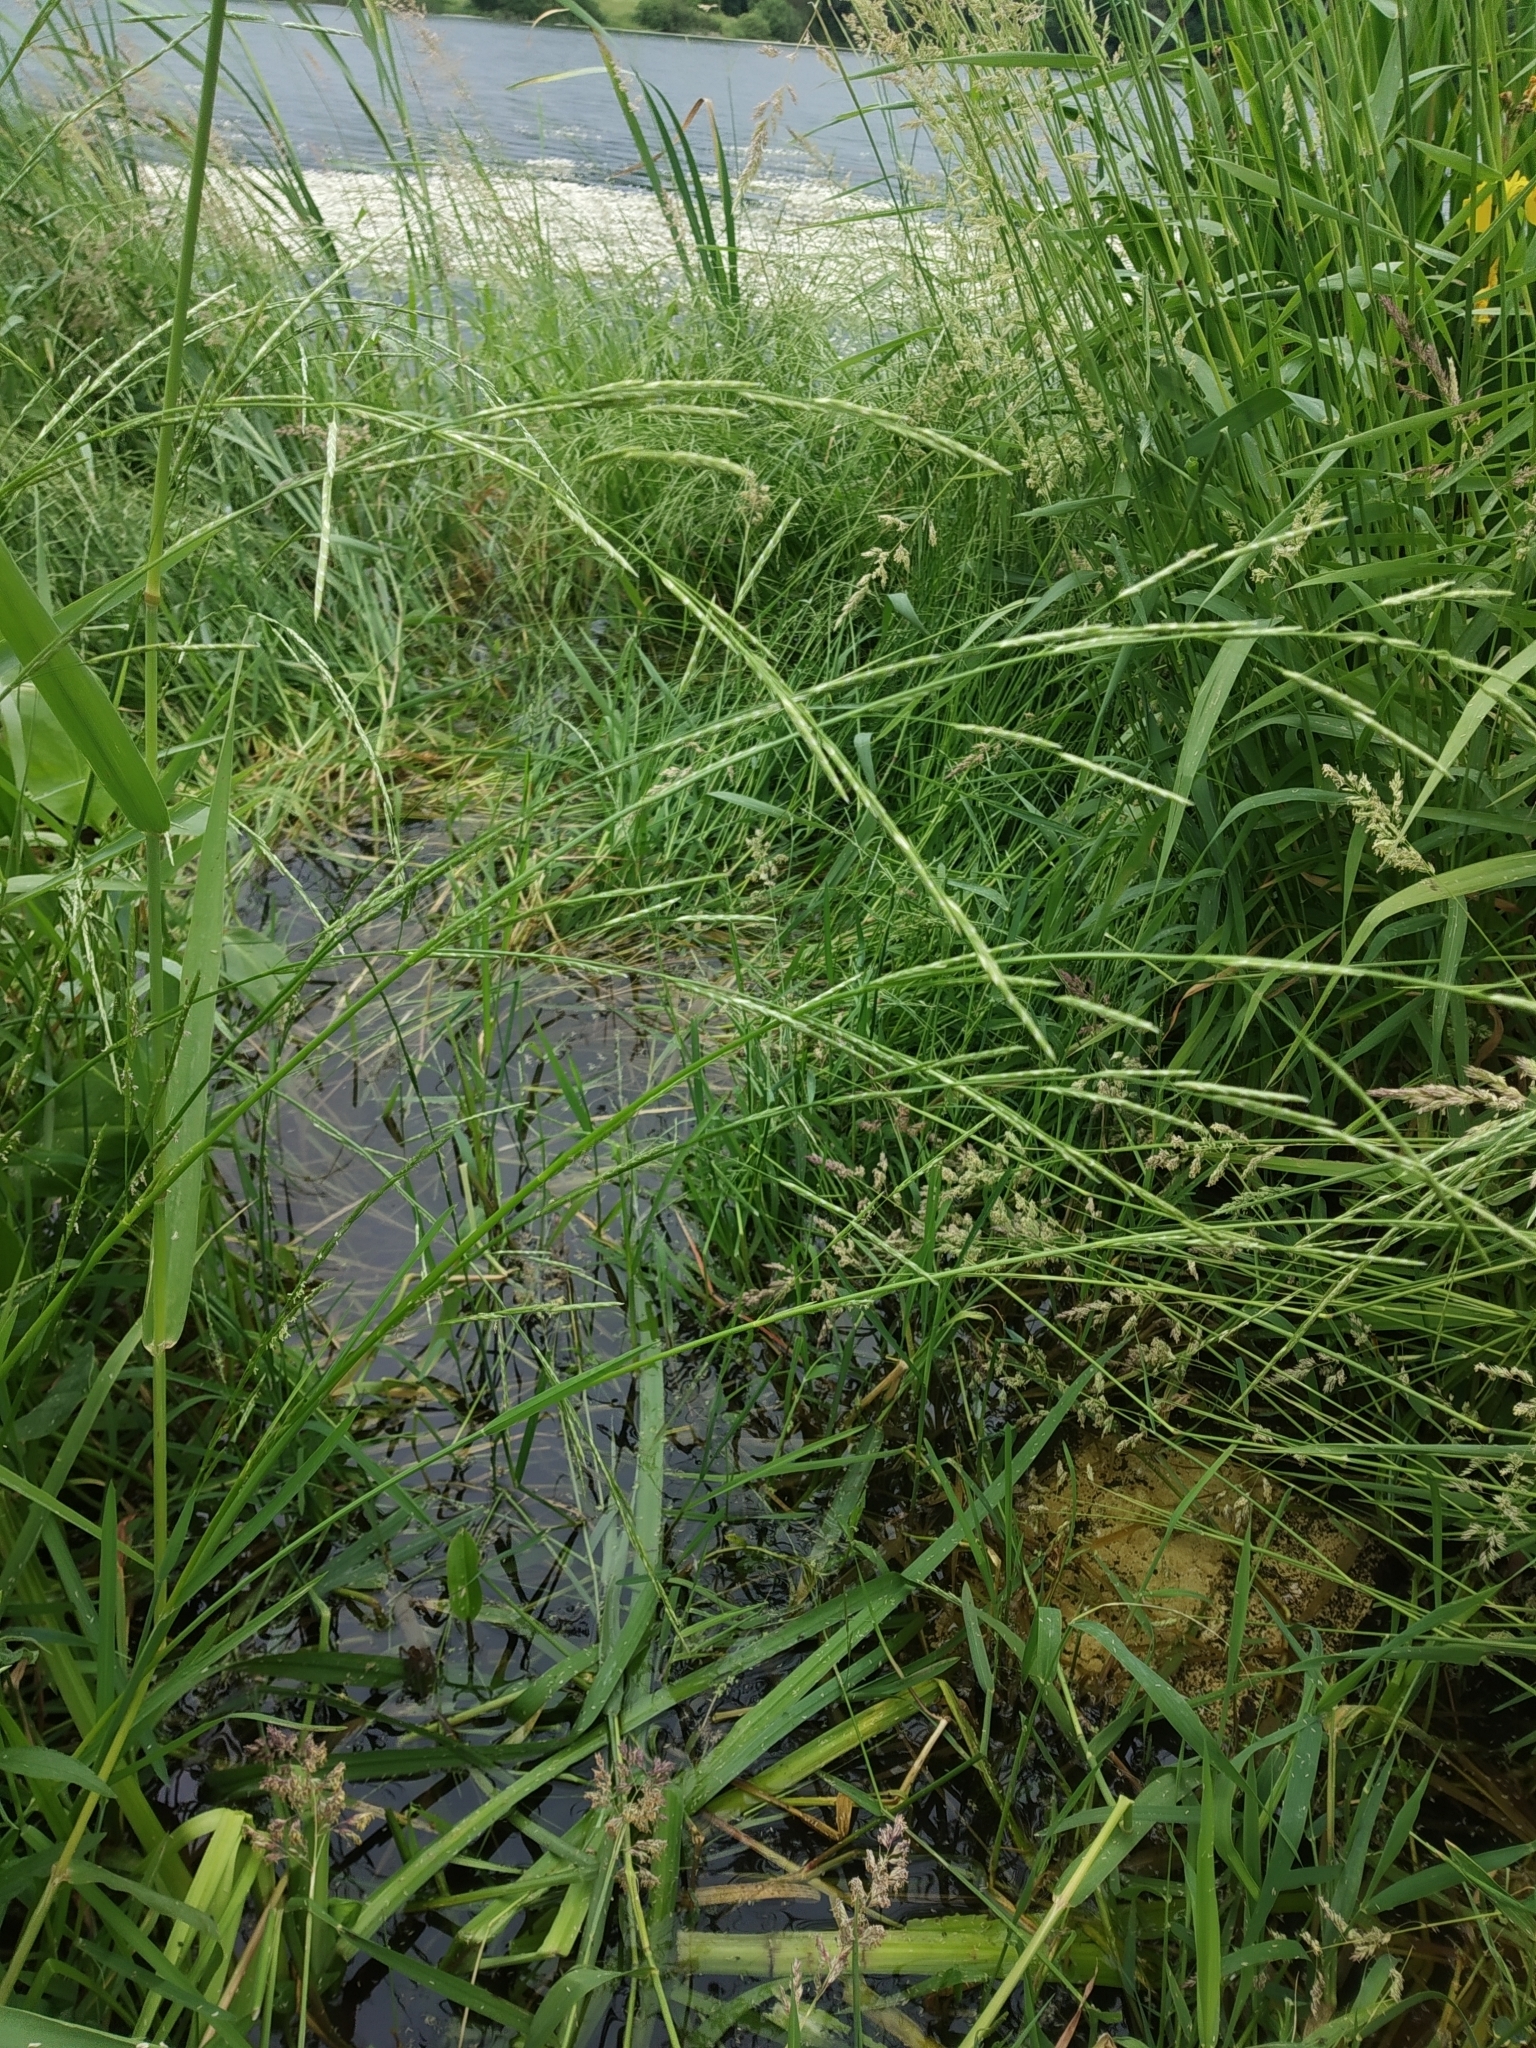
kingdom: Plantae
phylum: Tracheophyta
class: Liliopsida
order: Poales
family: Poaceae
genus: Glyceria
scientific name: Glyceria fluitans
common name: Floating sweet-grass
